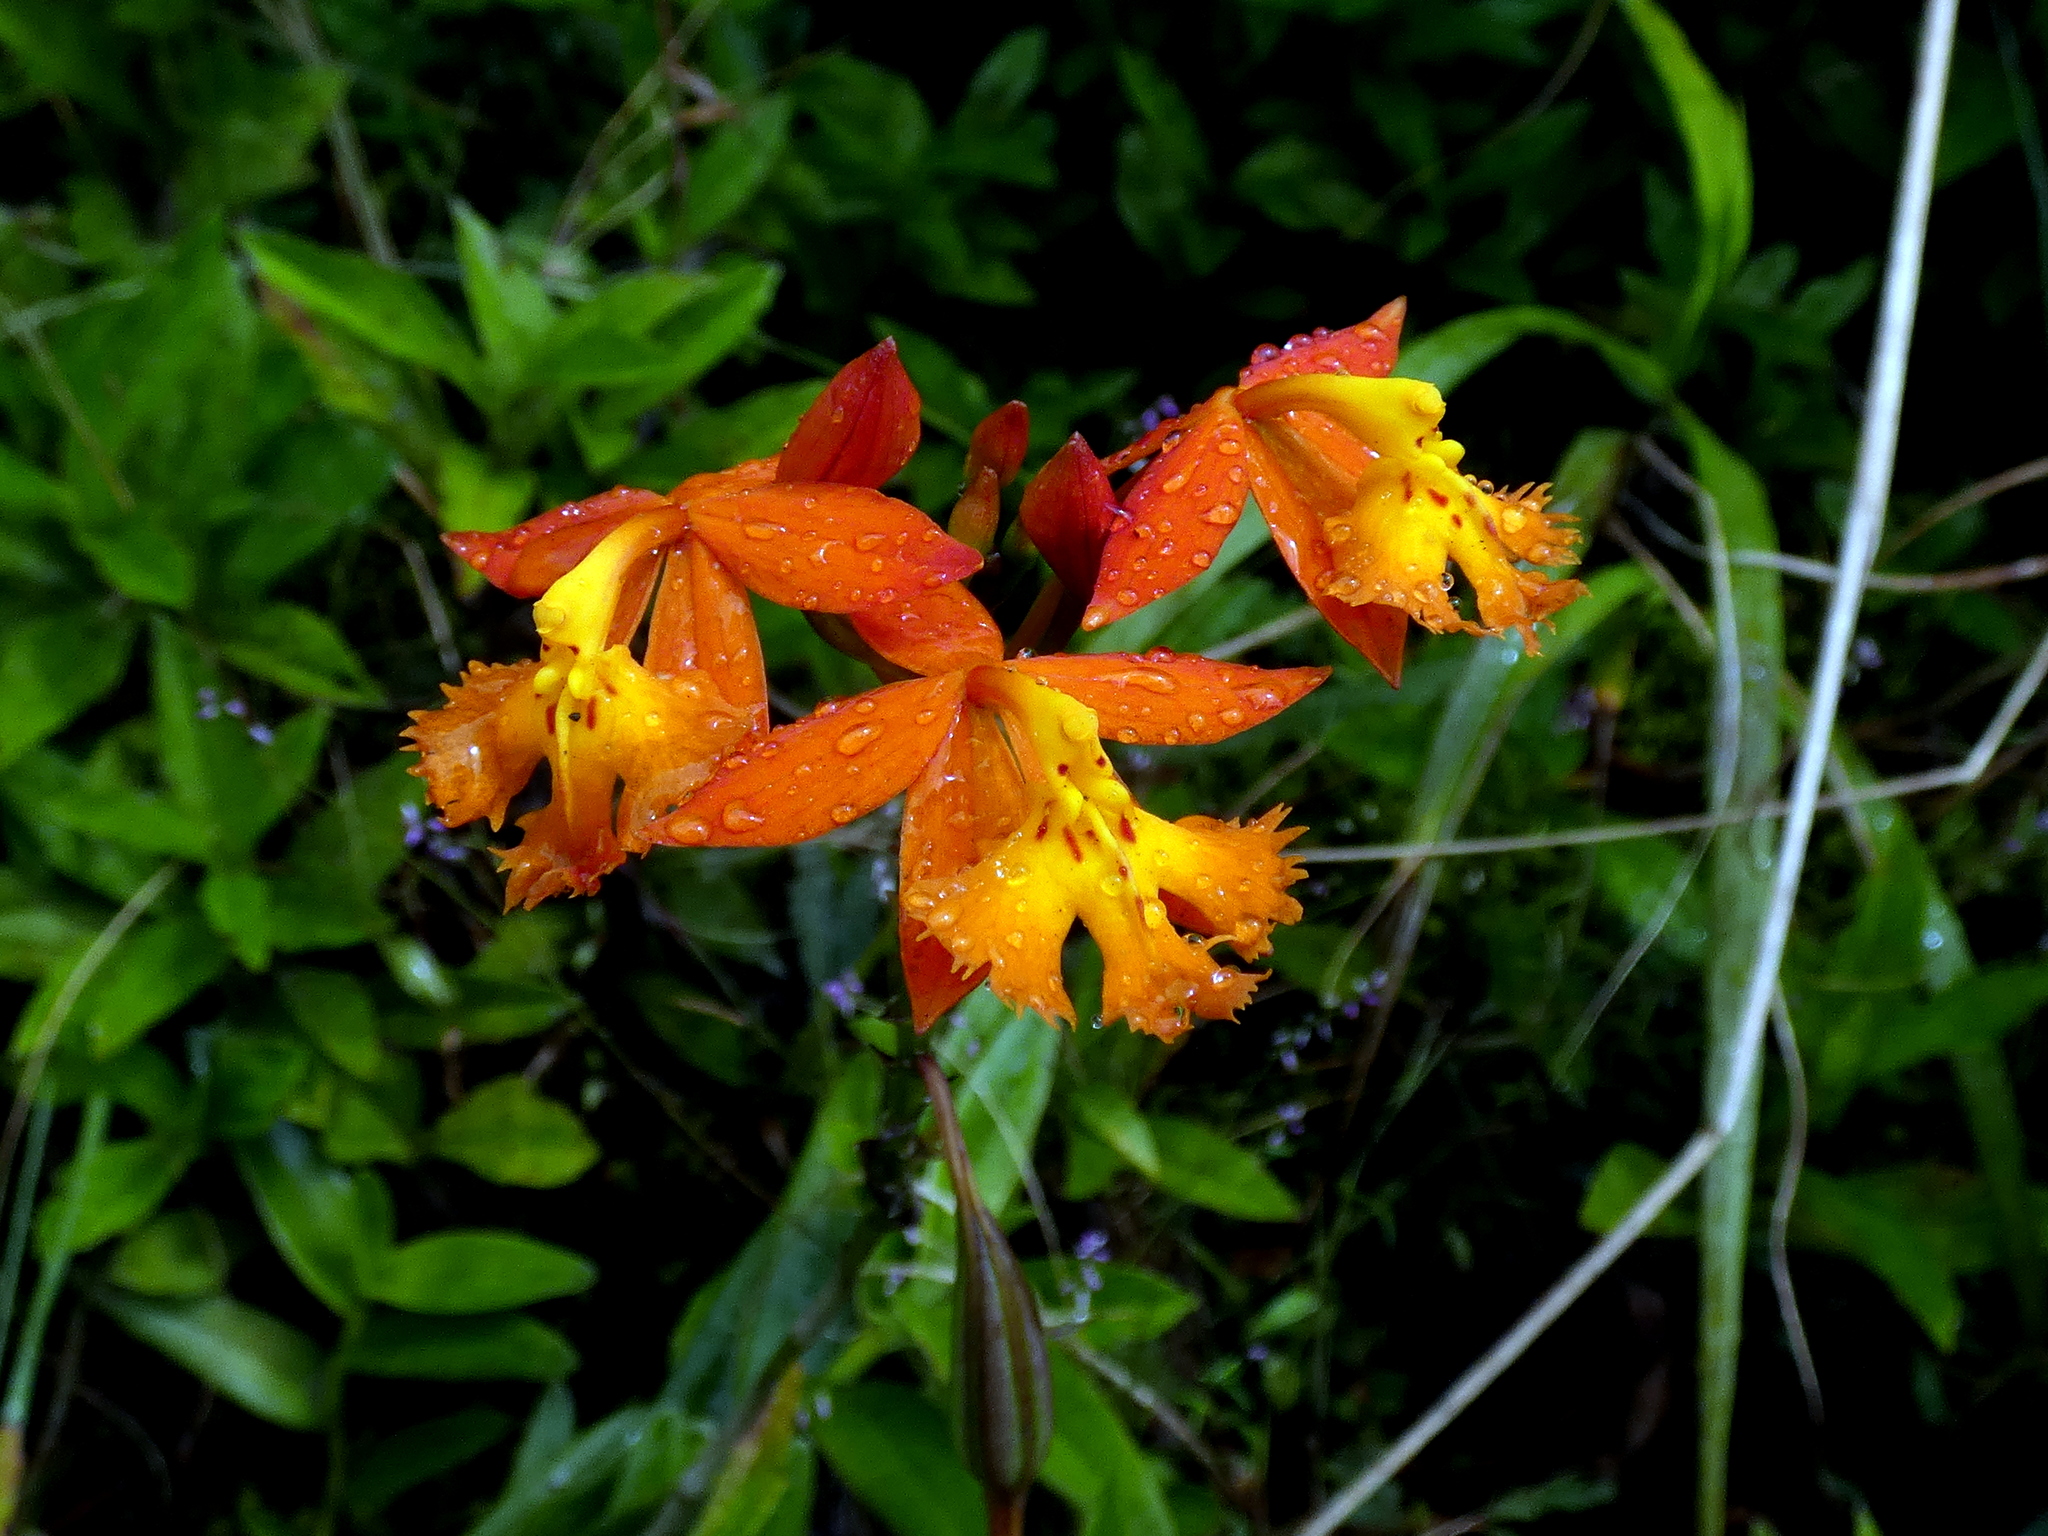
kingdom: Plantae
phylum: Tracheophyta
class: Liliopsida
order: Asparagales
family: Orchidaceae
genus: Epidendrum
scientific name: Epidendrum radicans
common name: Fire star orchid
